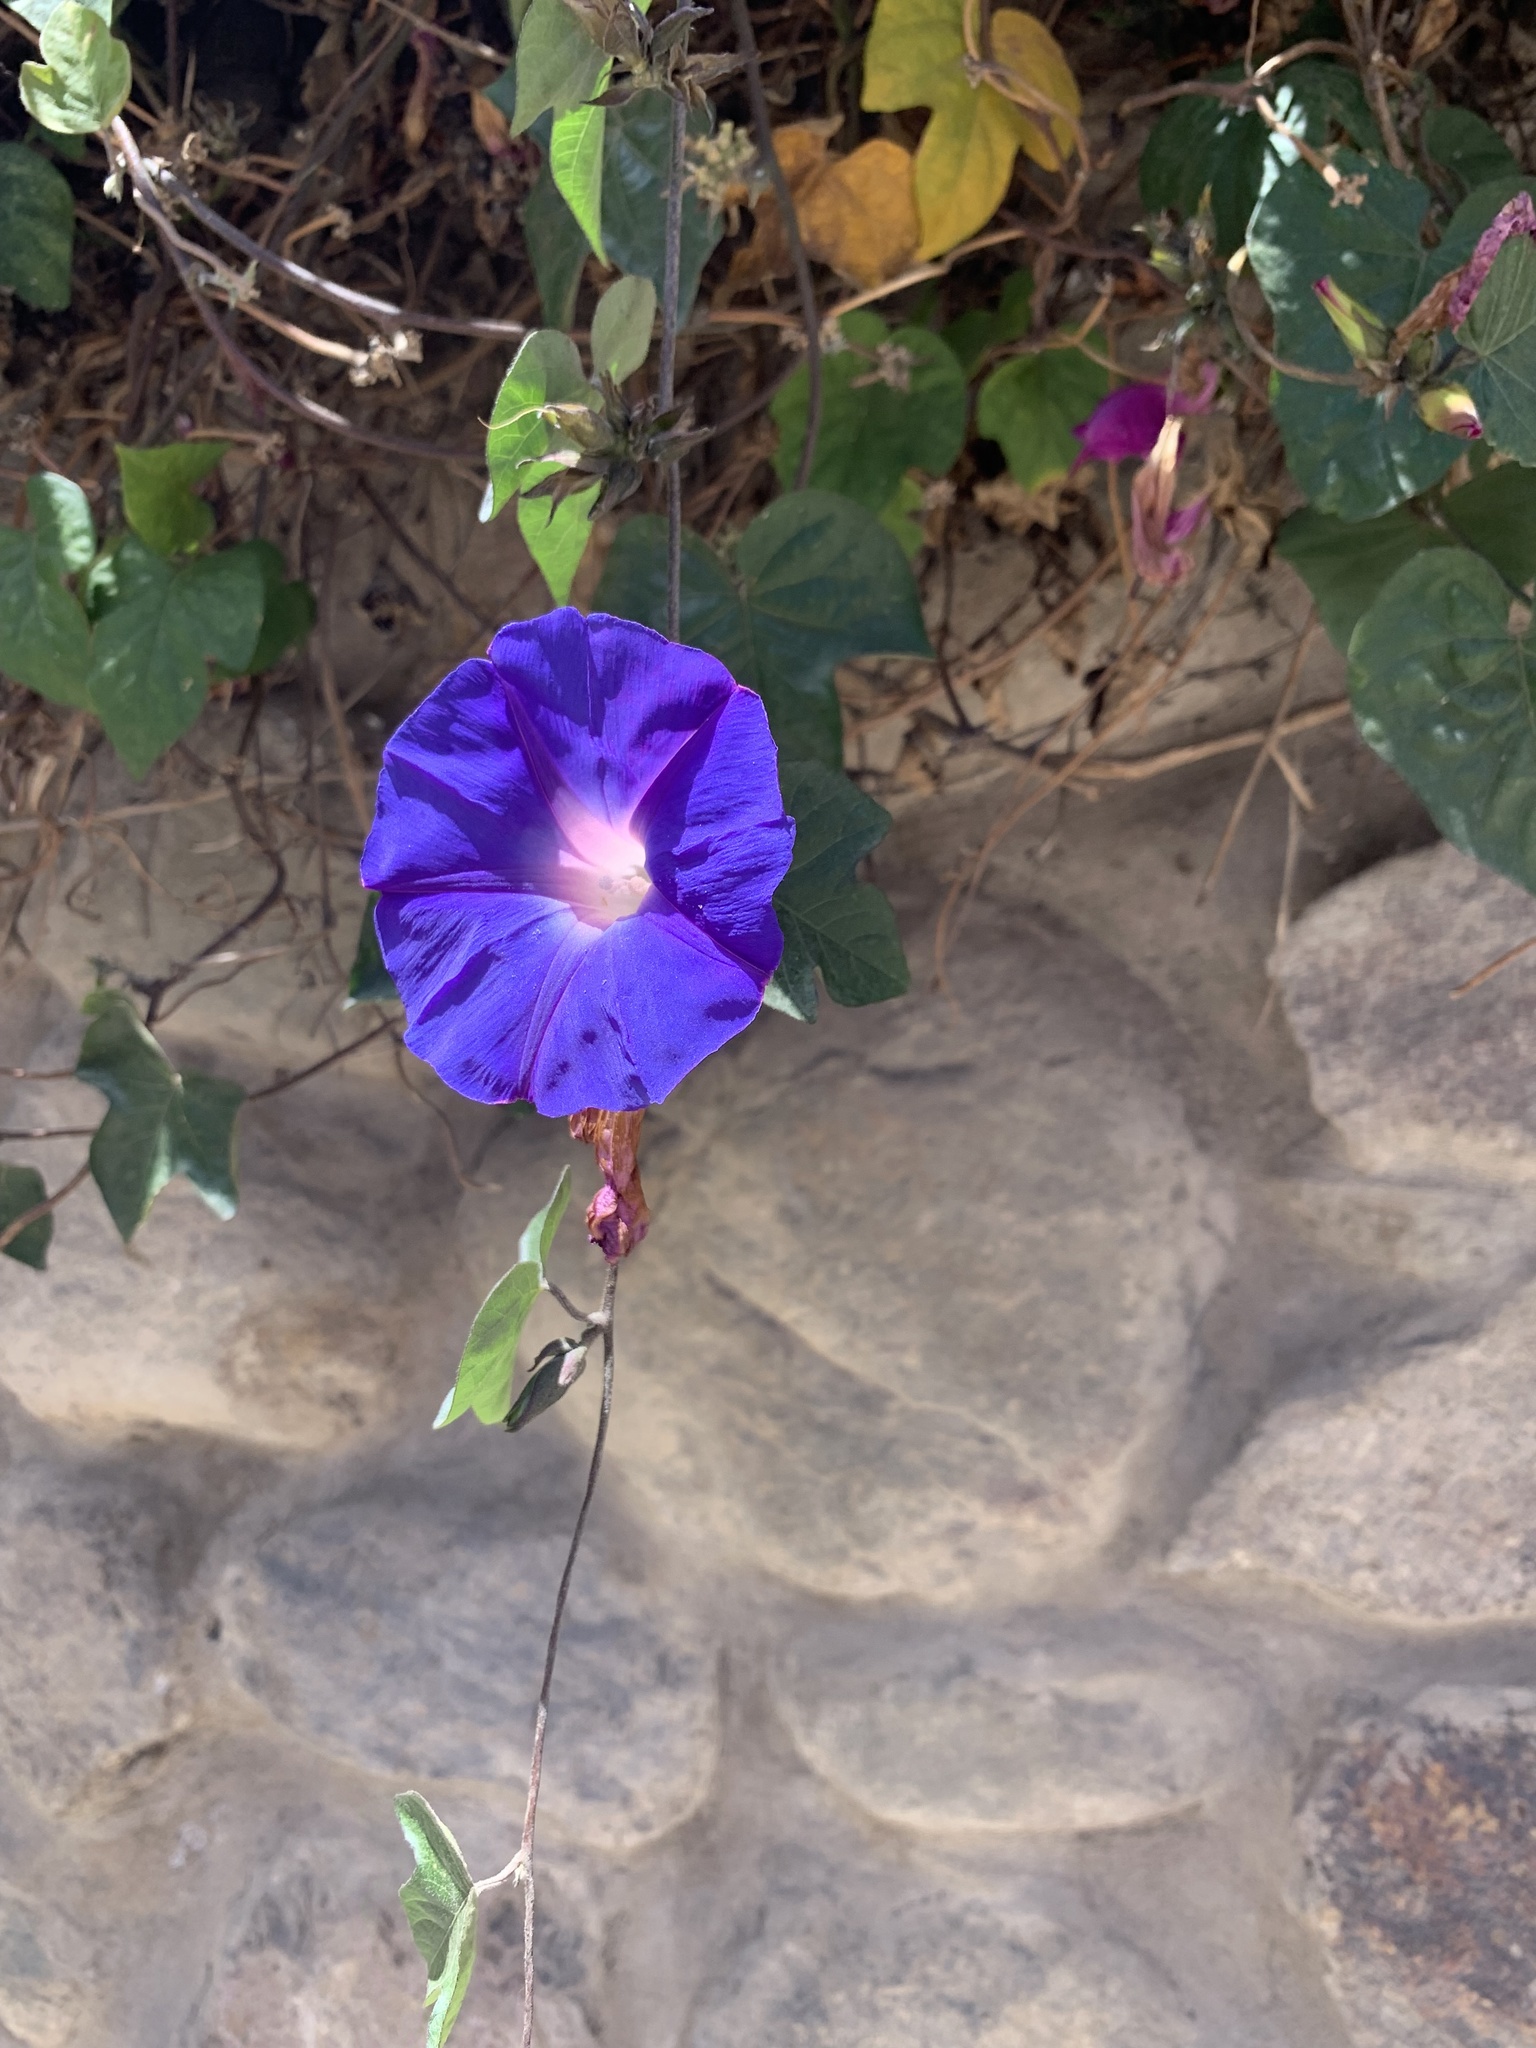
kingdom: Plantae
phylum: Tracheophyta
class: Magnoliopsida
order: Solanales
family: Convolvulaceae
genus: Ipomoea
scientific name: Ipomoea indica
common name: Blue dawnflower
